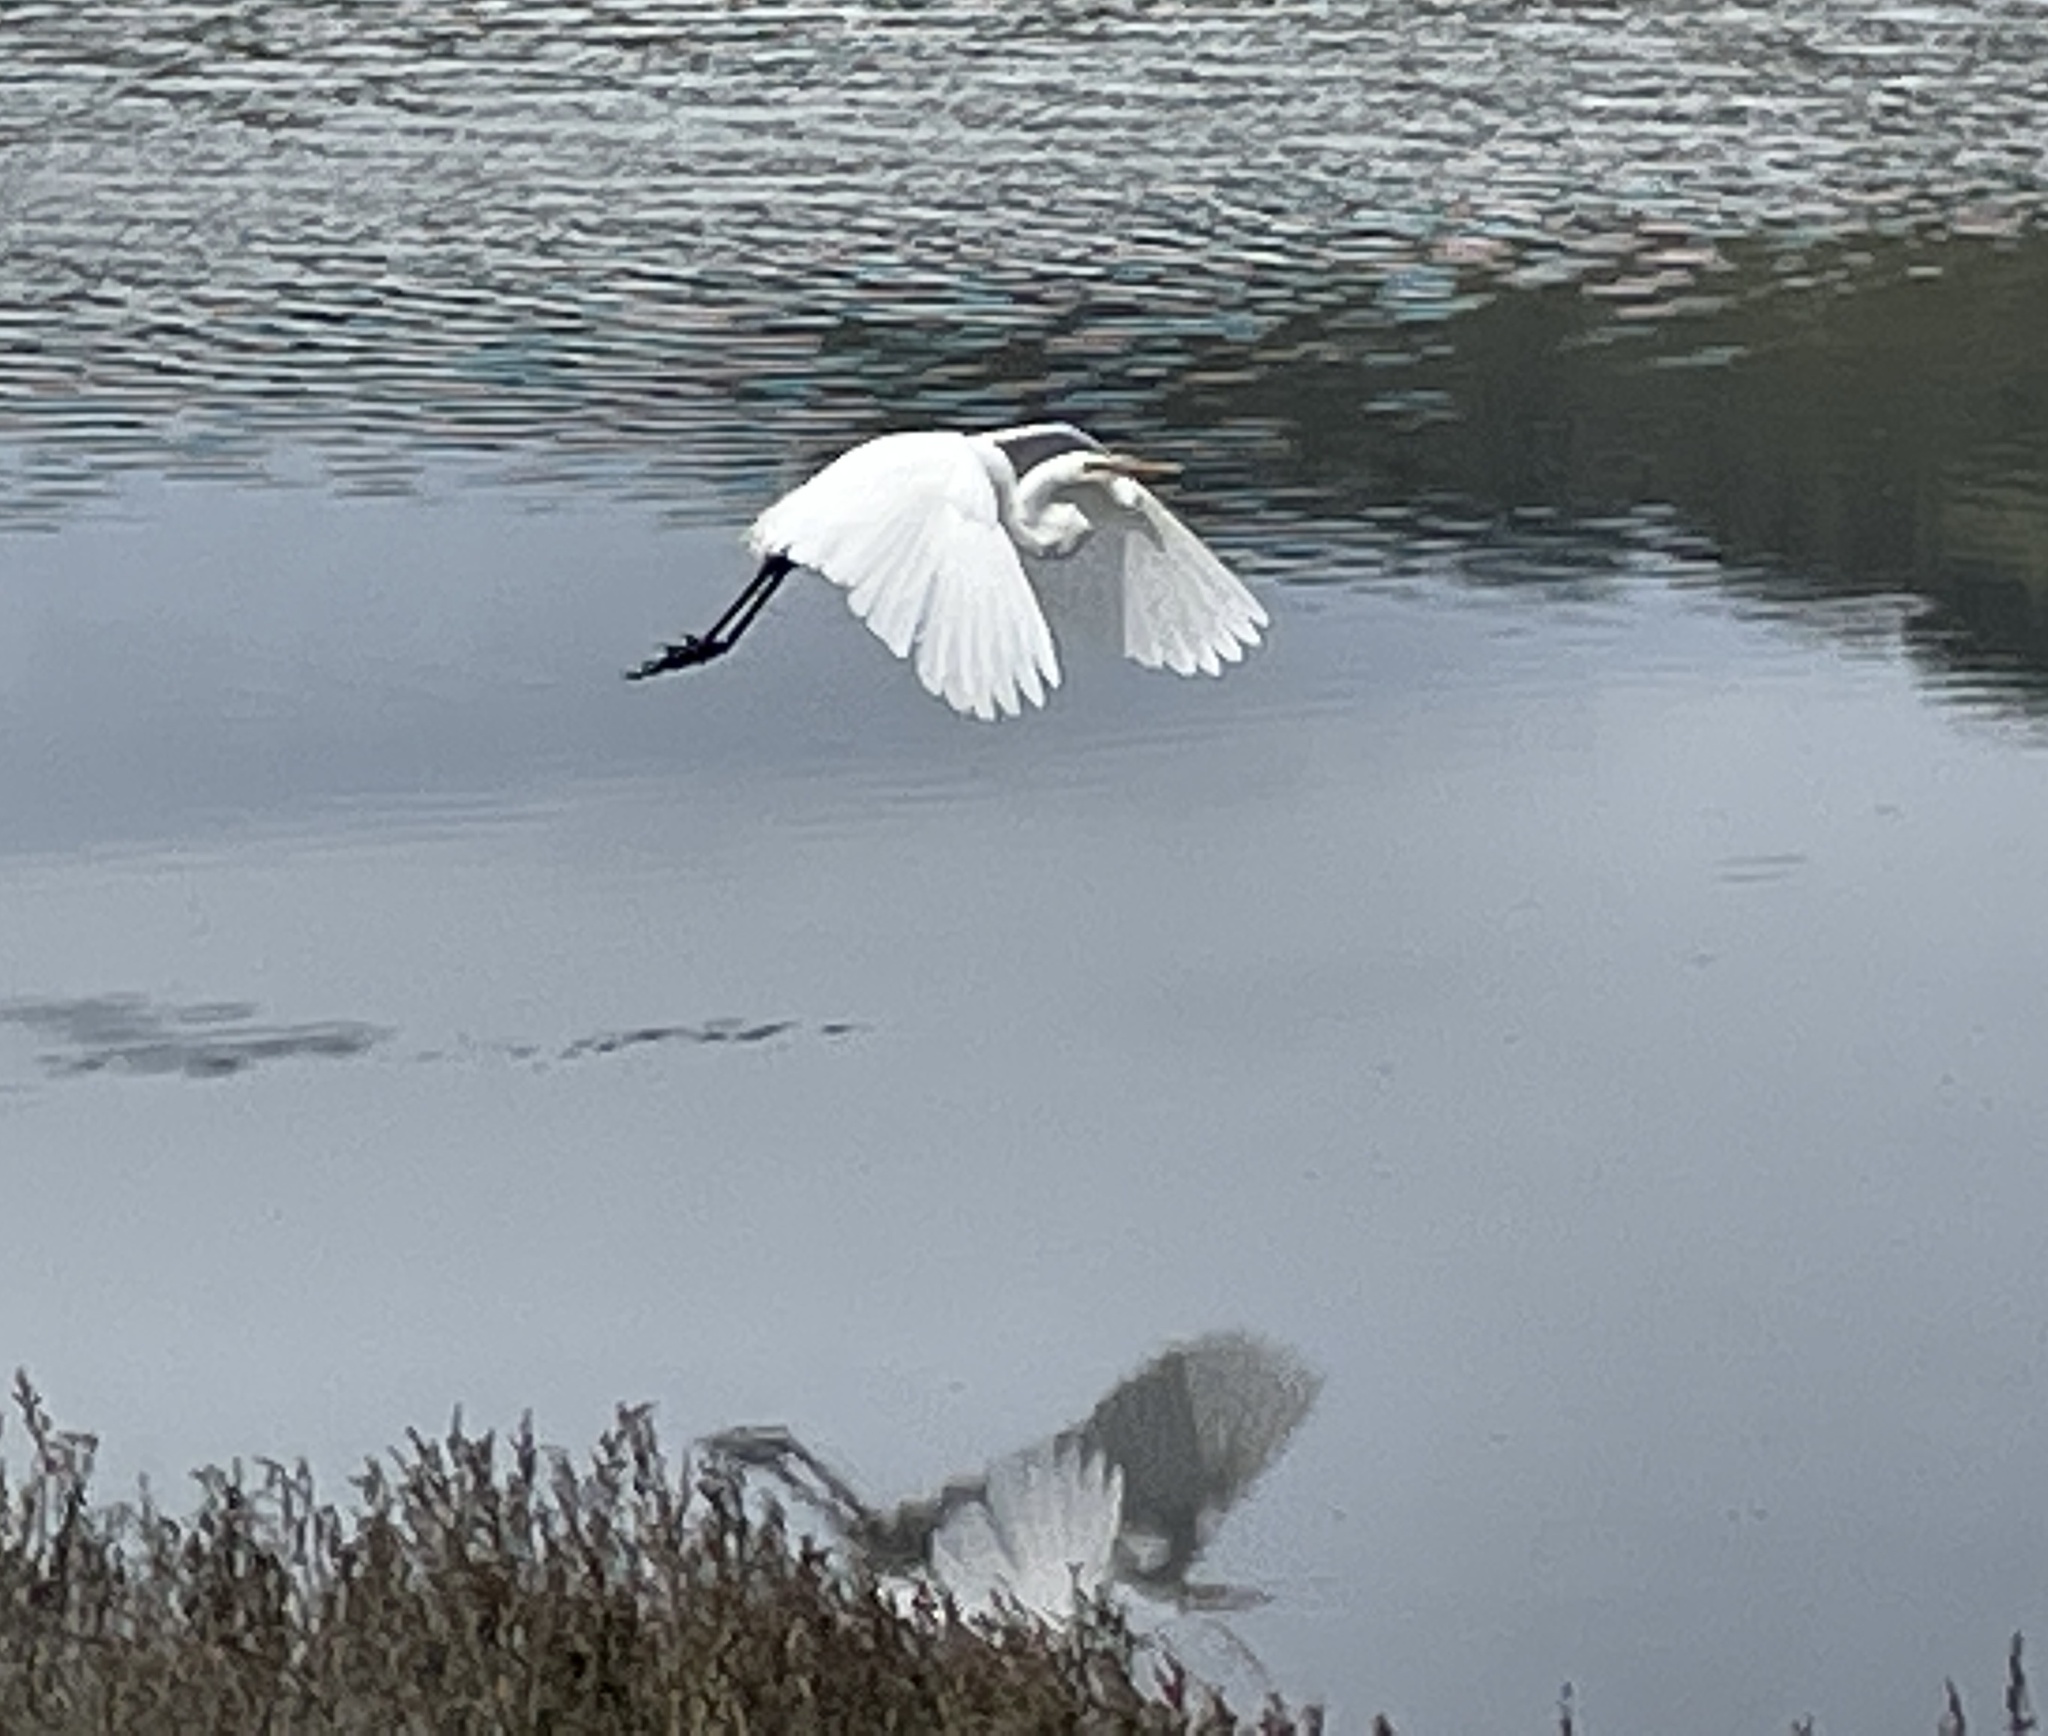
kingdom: Animalia
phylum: Chordata
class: Aves
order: Pelecaniformes
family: Ardeidae
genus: Ardea
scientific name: Ardea alba
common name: Great egret
